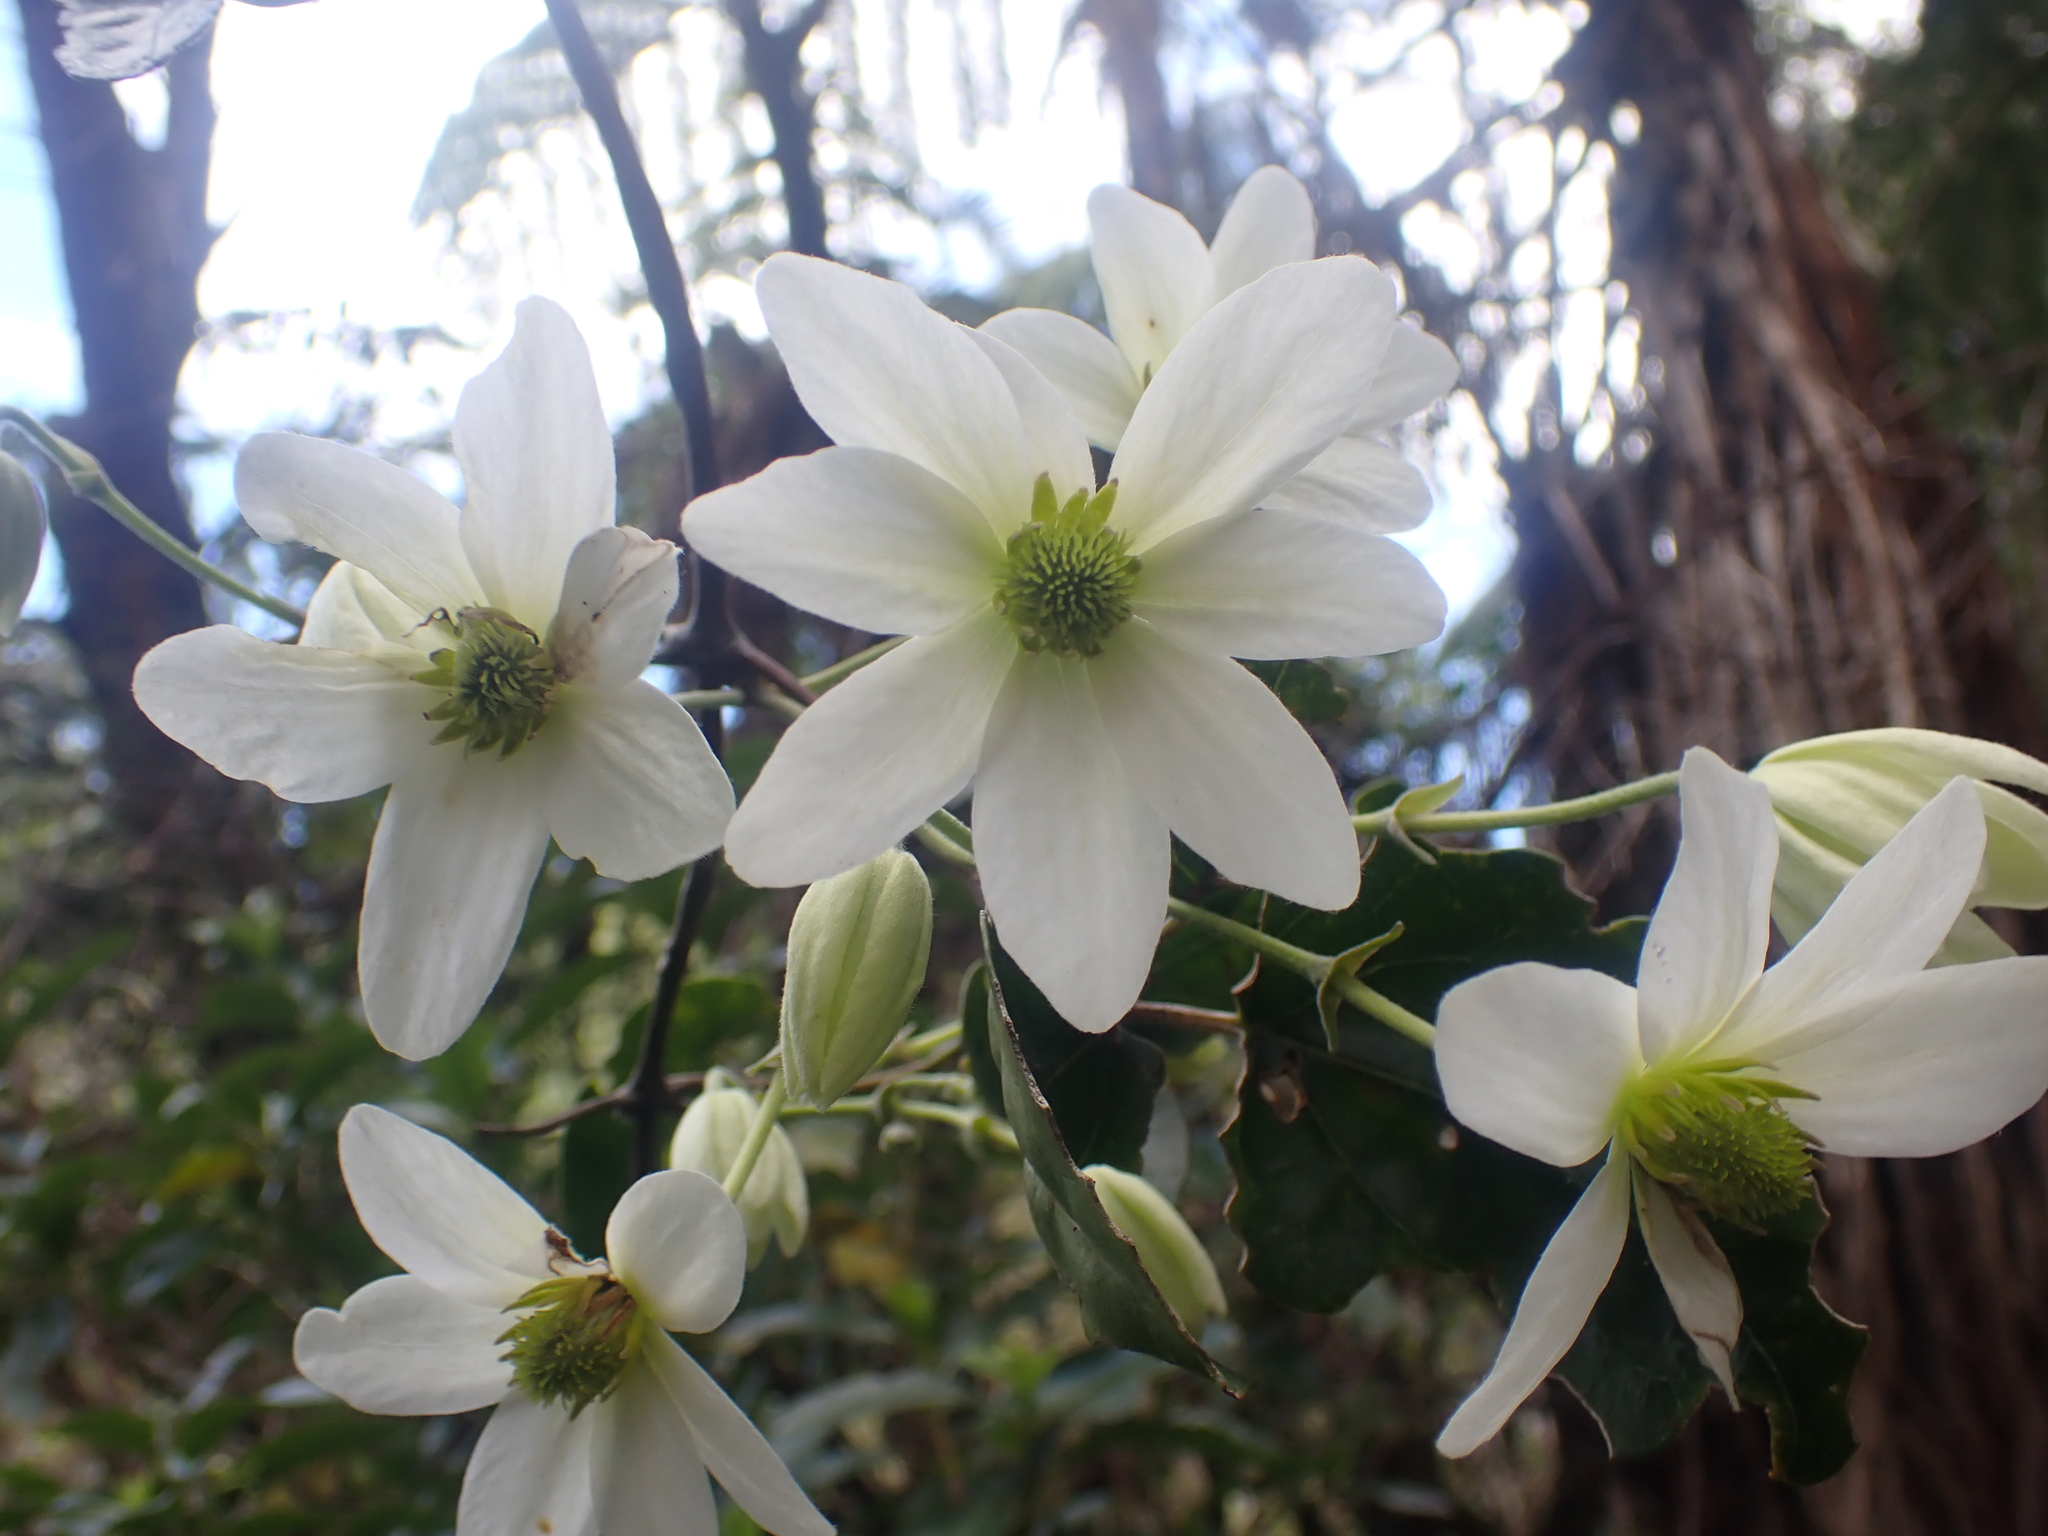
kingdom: Plantae
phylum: Tracheophyta
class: Magnoliopsida
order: Ranunculales
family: Ranunculaceae
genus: Clematis
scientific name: Clematis paniculata
